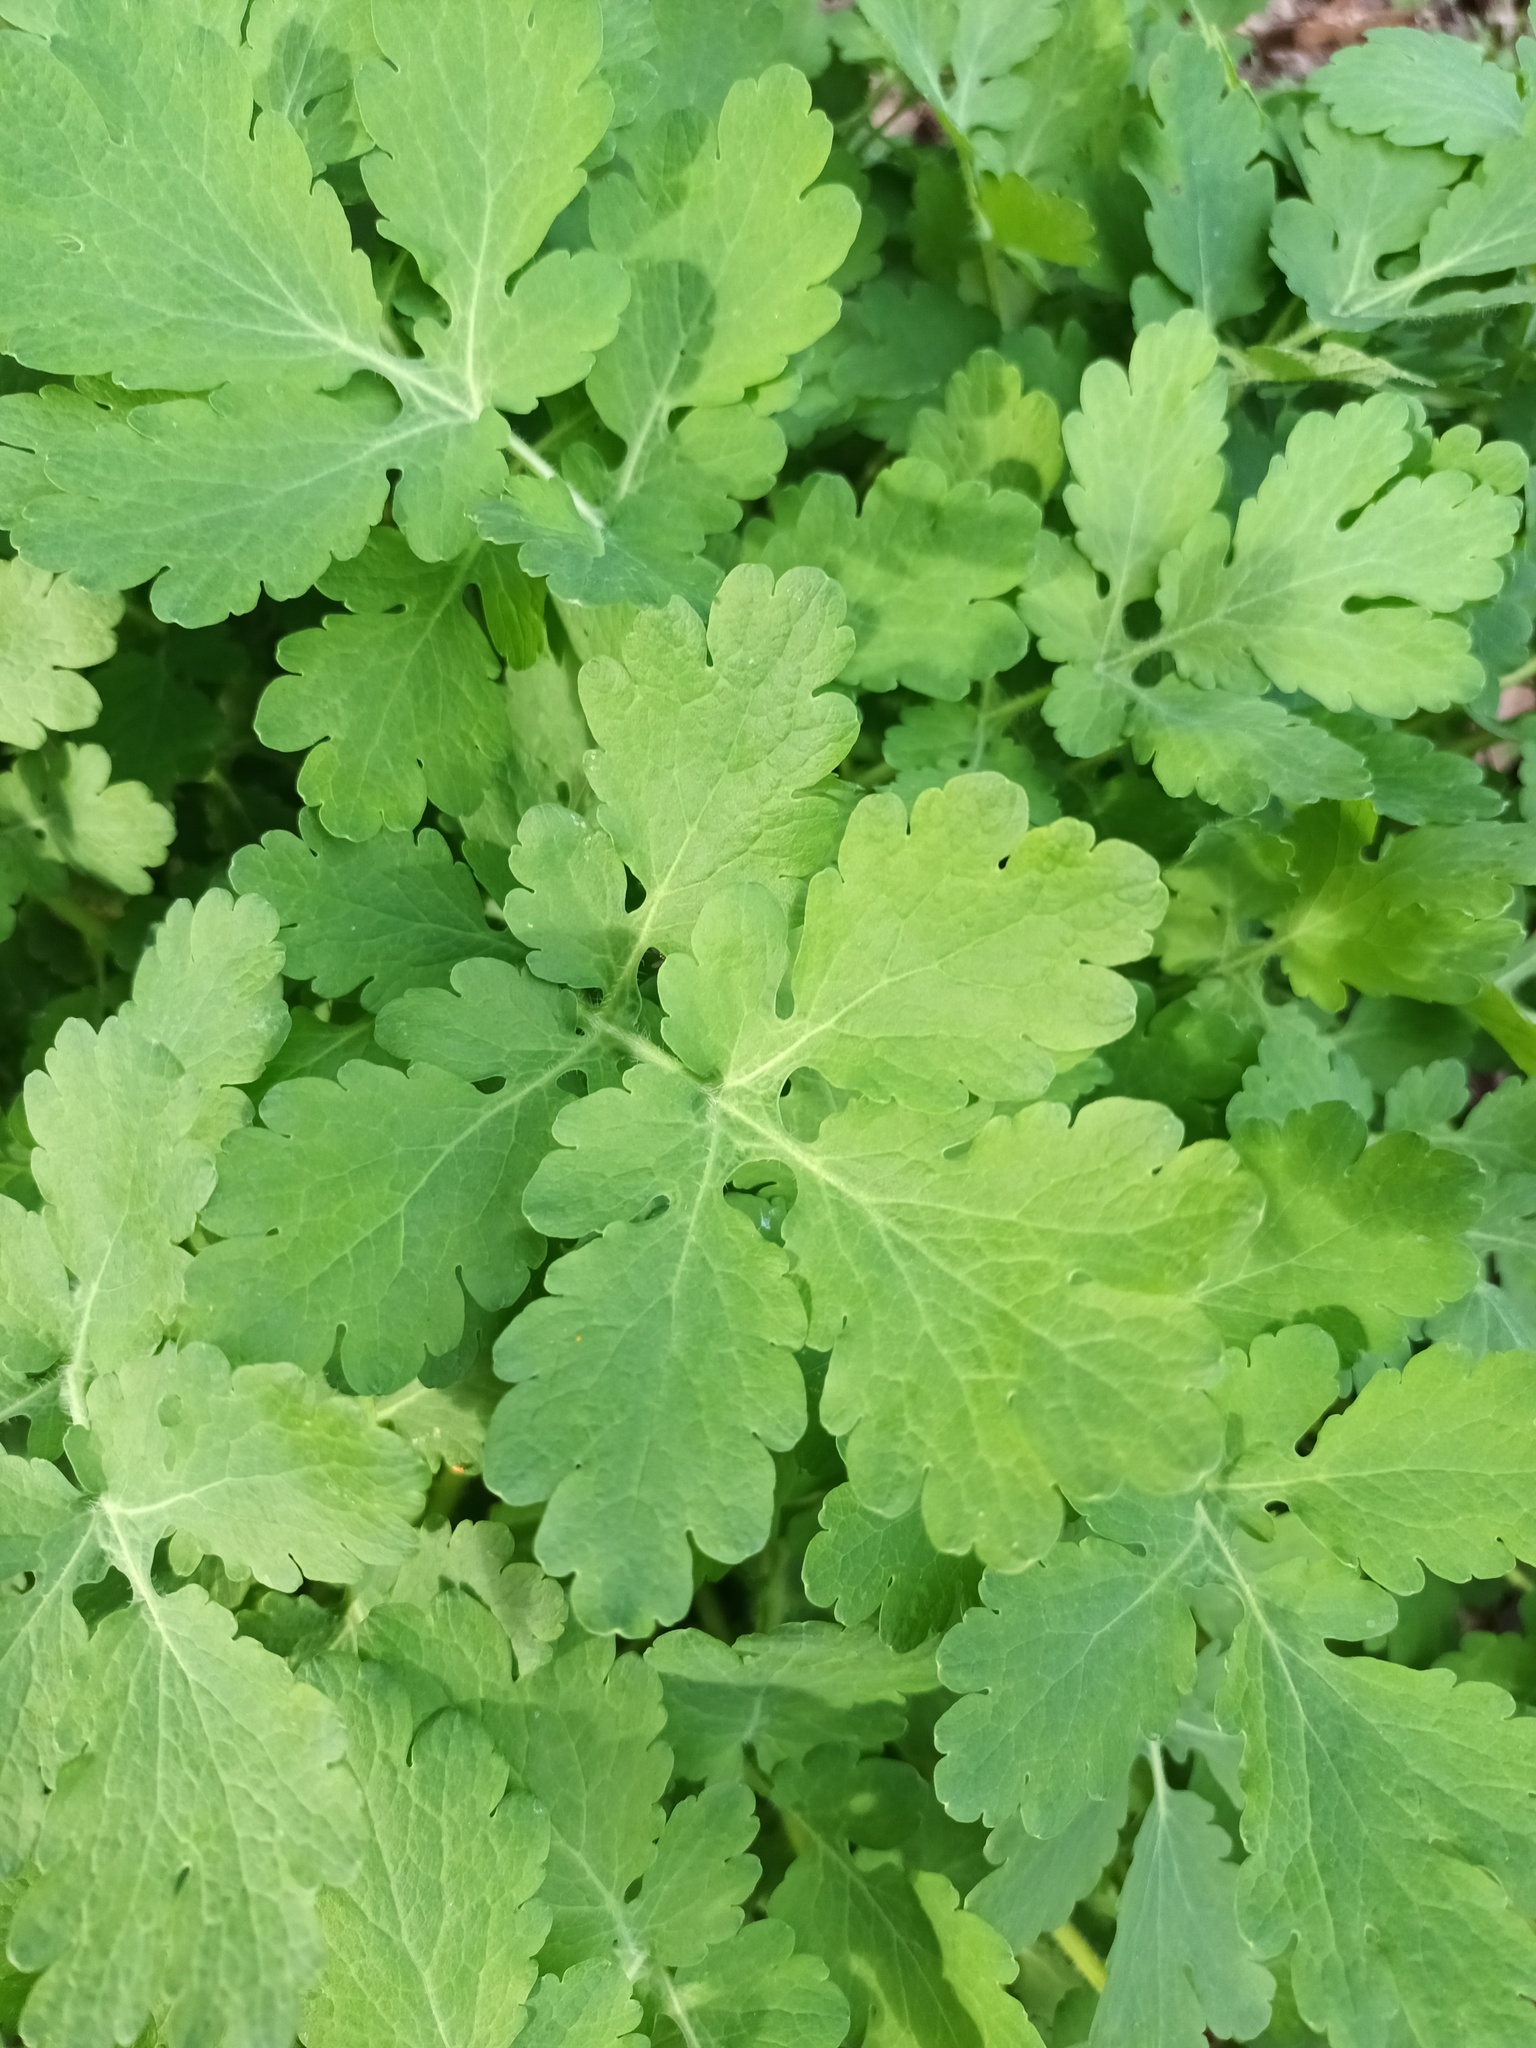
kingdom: Plantae
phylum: Tracheophyta
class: Magnoliopsida
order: Ranunculales
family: Papaveraceae
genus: Chelidonium
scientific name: Chelidonium majus
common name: Greater celandine
